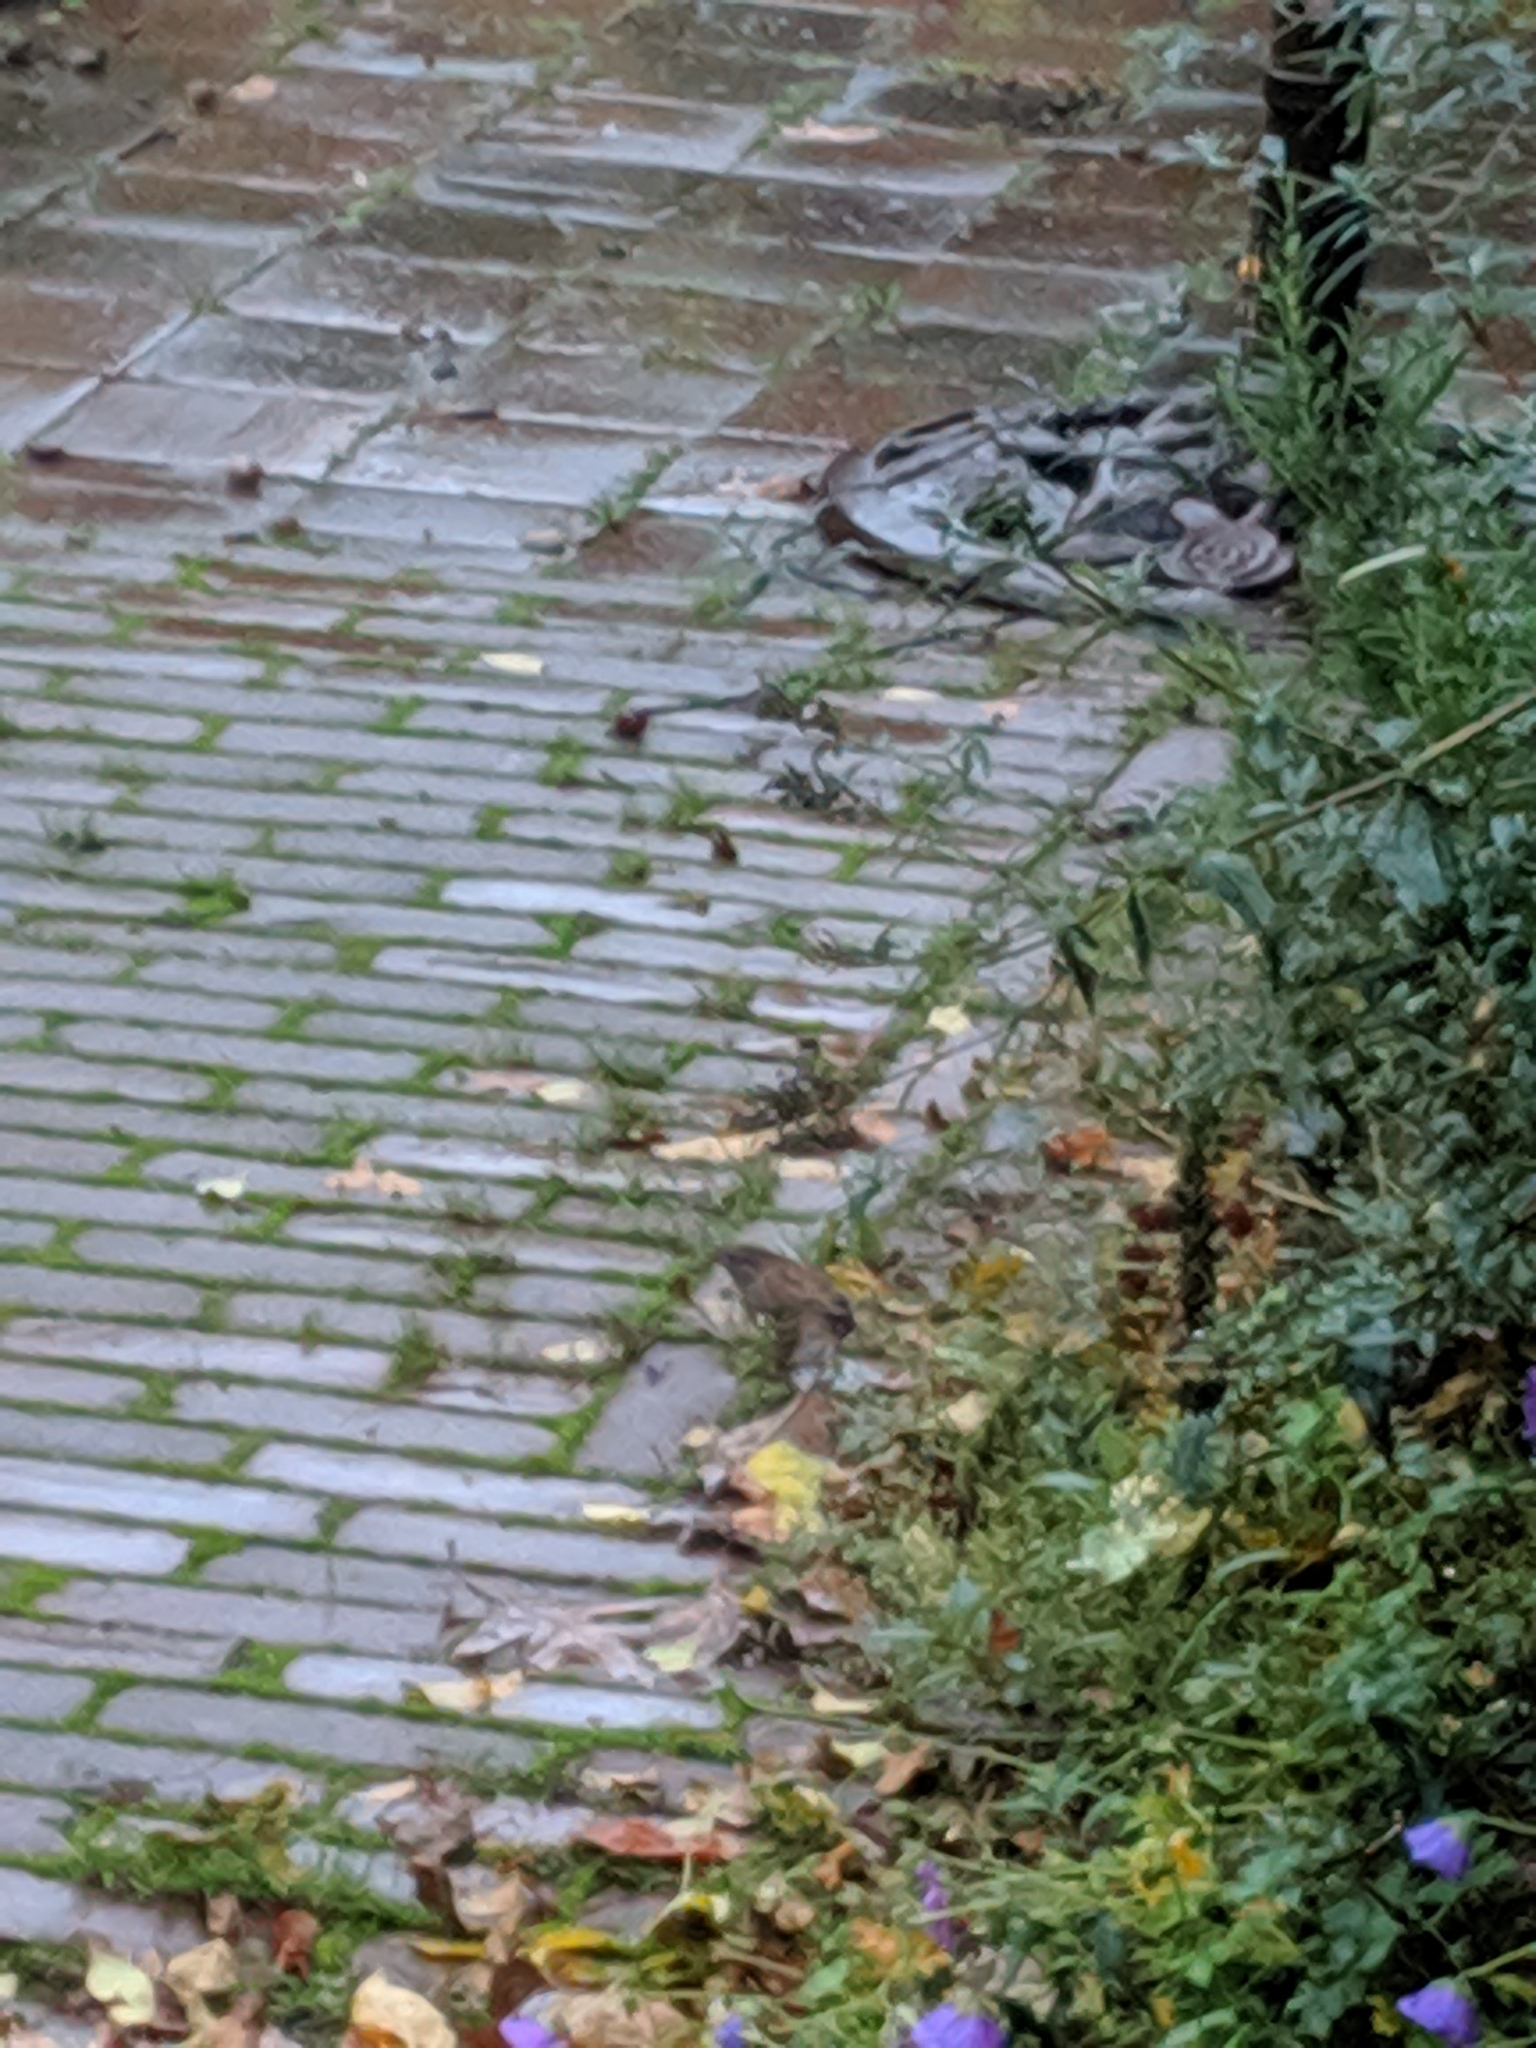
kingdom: Animalia
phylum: Chordata
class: Aves
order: Passeriformes
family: Prunellidae
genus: Prunella
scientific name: Prunella modularis
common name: Dunnock
